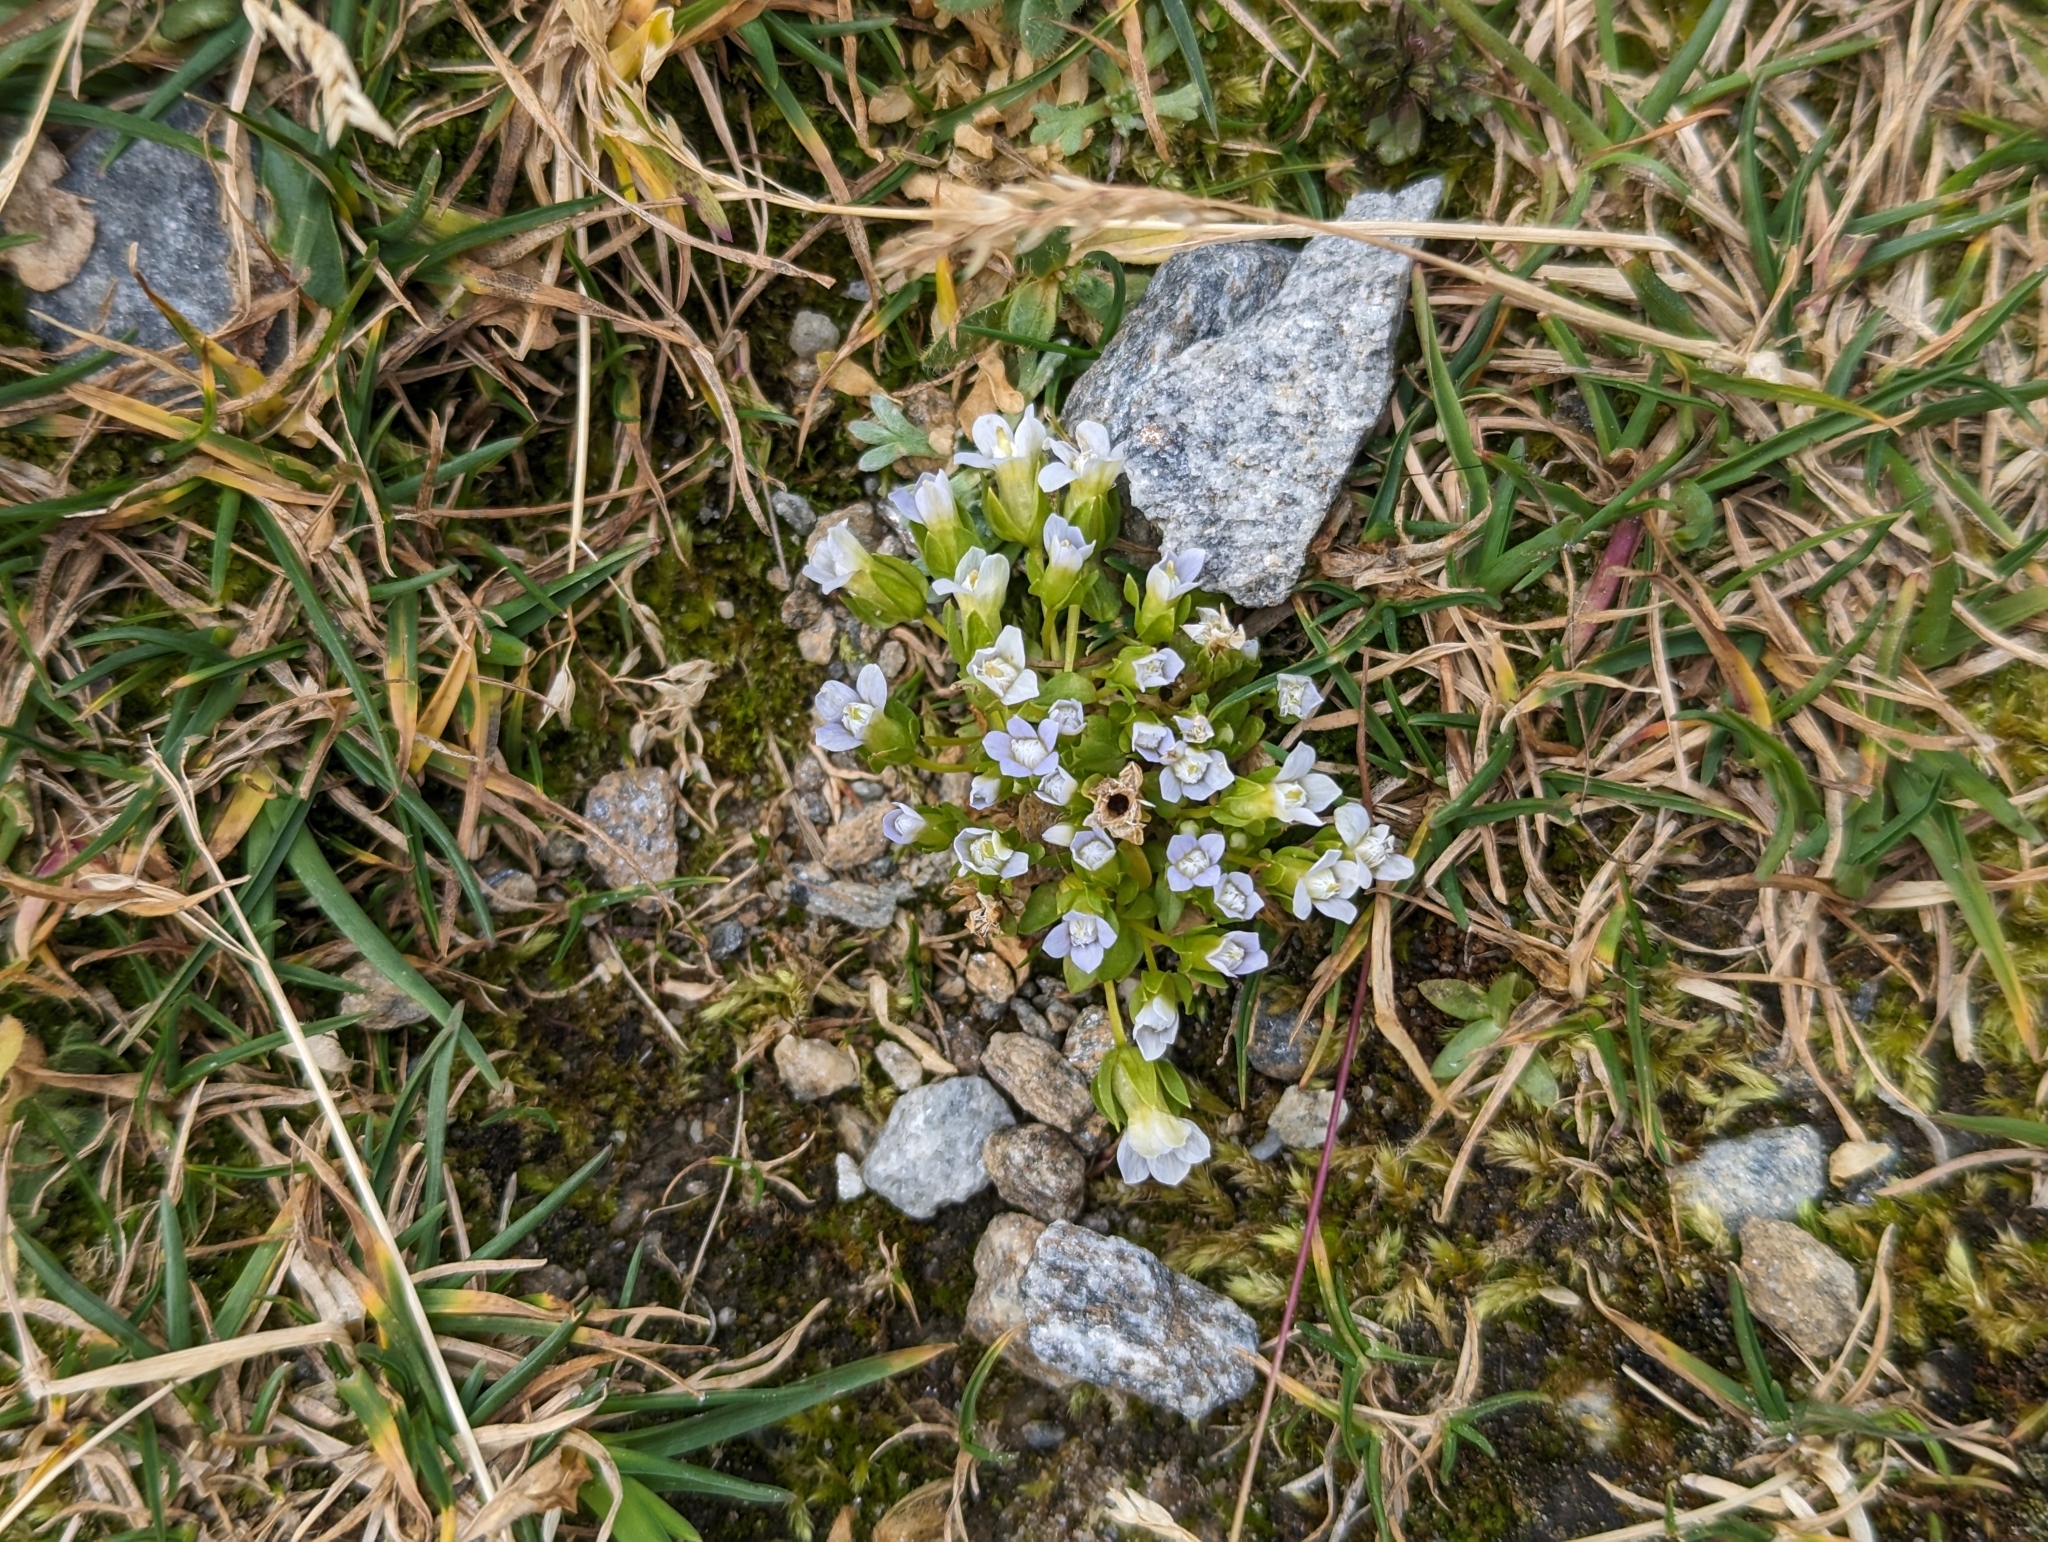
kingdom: Plantae
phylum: Tracheophyta
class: Magnoliopsida
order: Gentianales
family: Gentianaceae
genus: Comastoma
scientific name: Comastoma nanum
